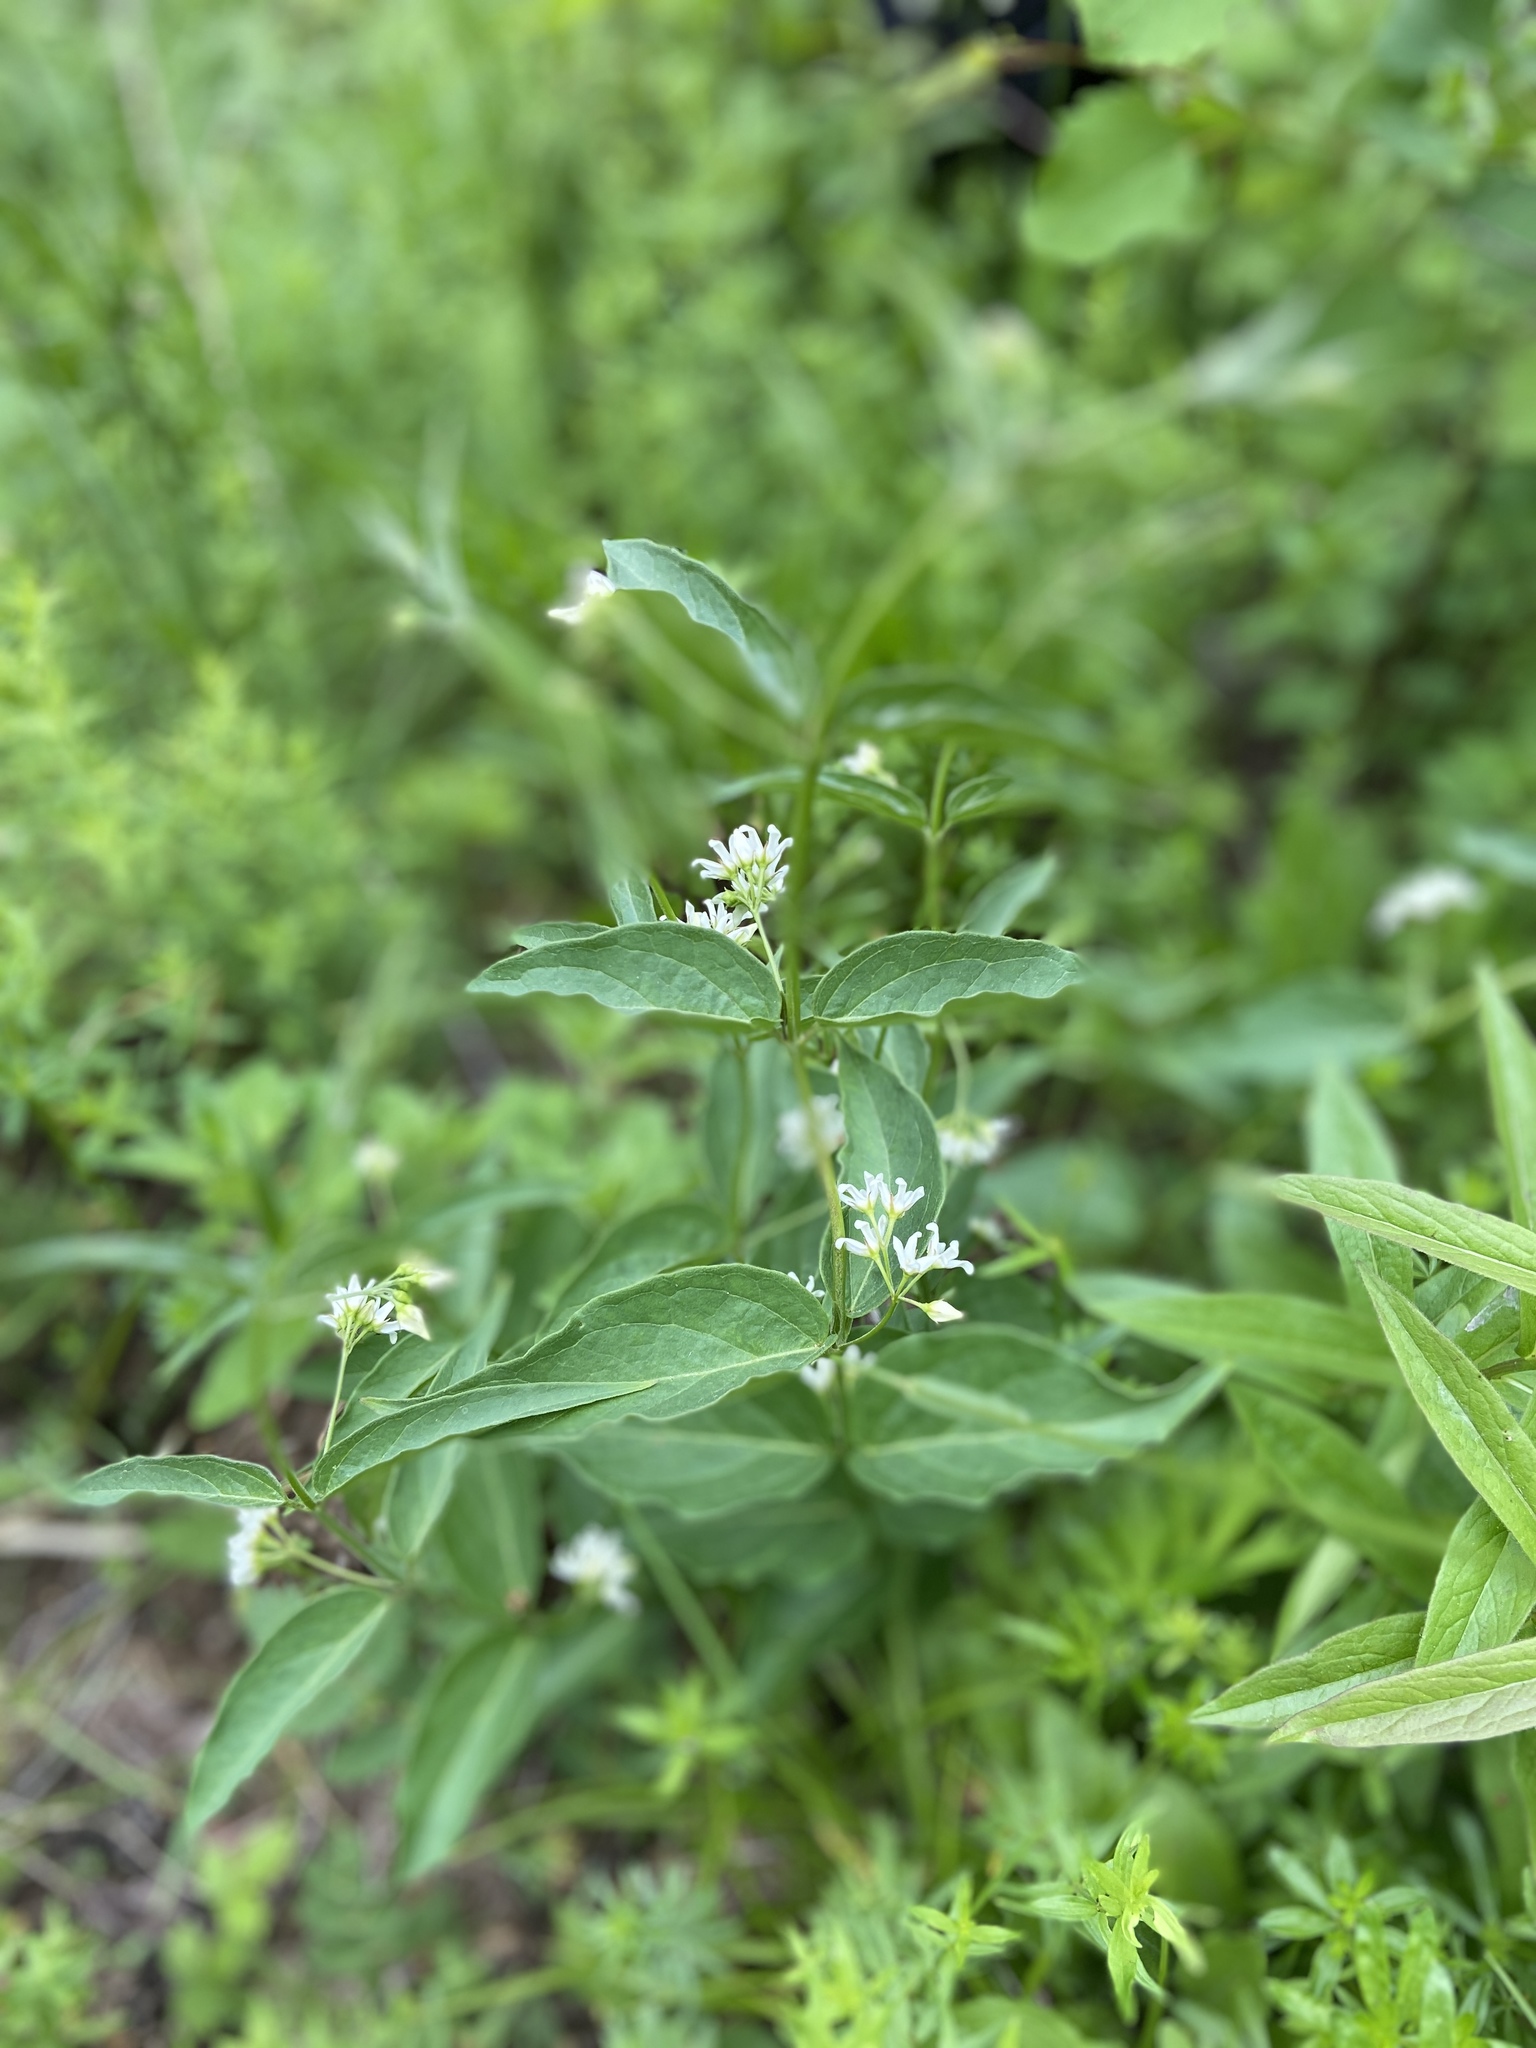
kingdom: Plantae
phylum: Tracheophyta
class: Magnoliopsida
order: Gentianales
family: Apocynaceae
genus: Vincetoxicum
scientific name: Vincetoxicum hirundinaria
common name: White swallowwort
